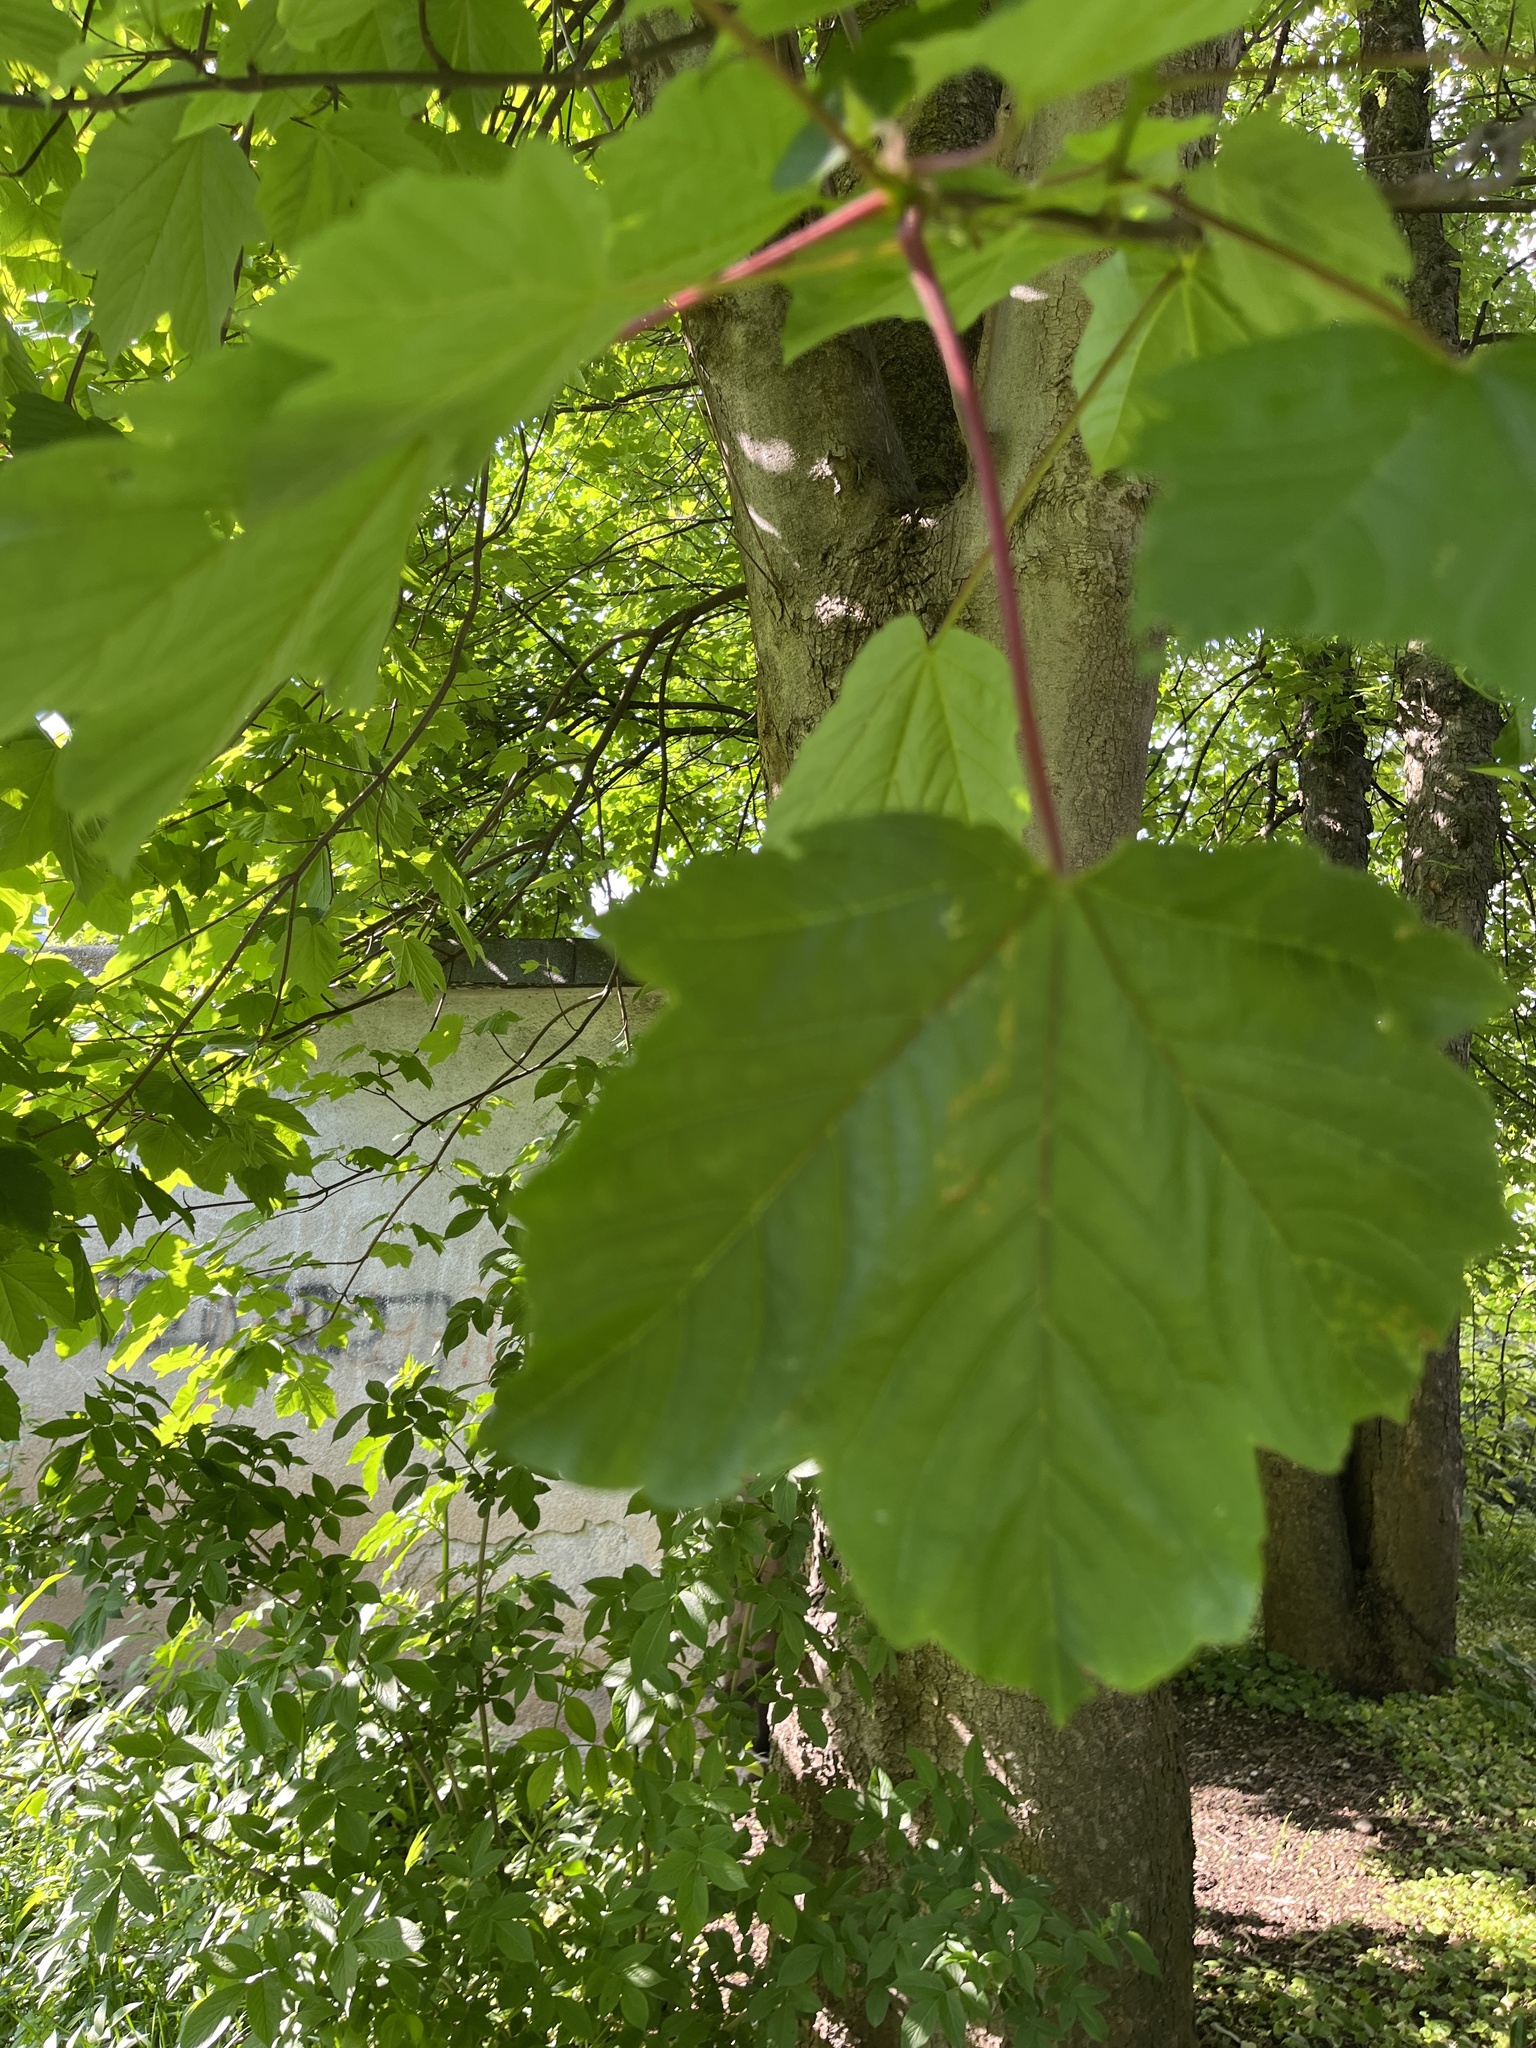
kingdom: Plantae
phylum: Tracheophyta
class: Magnoliopsida
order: Sapindales
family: Sapindaceae
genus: Acer
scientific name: Acer pseudoplatanus
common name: Sycamore
